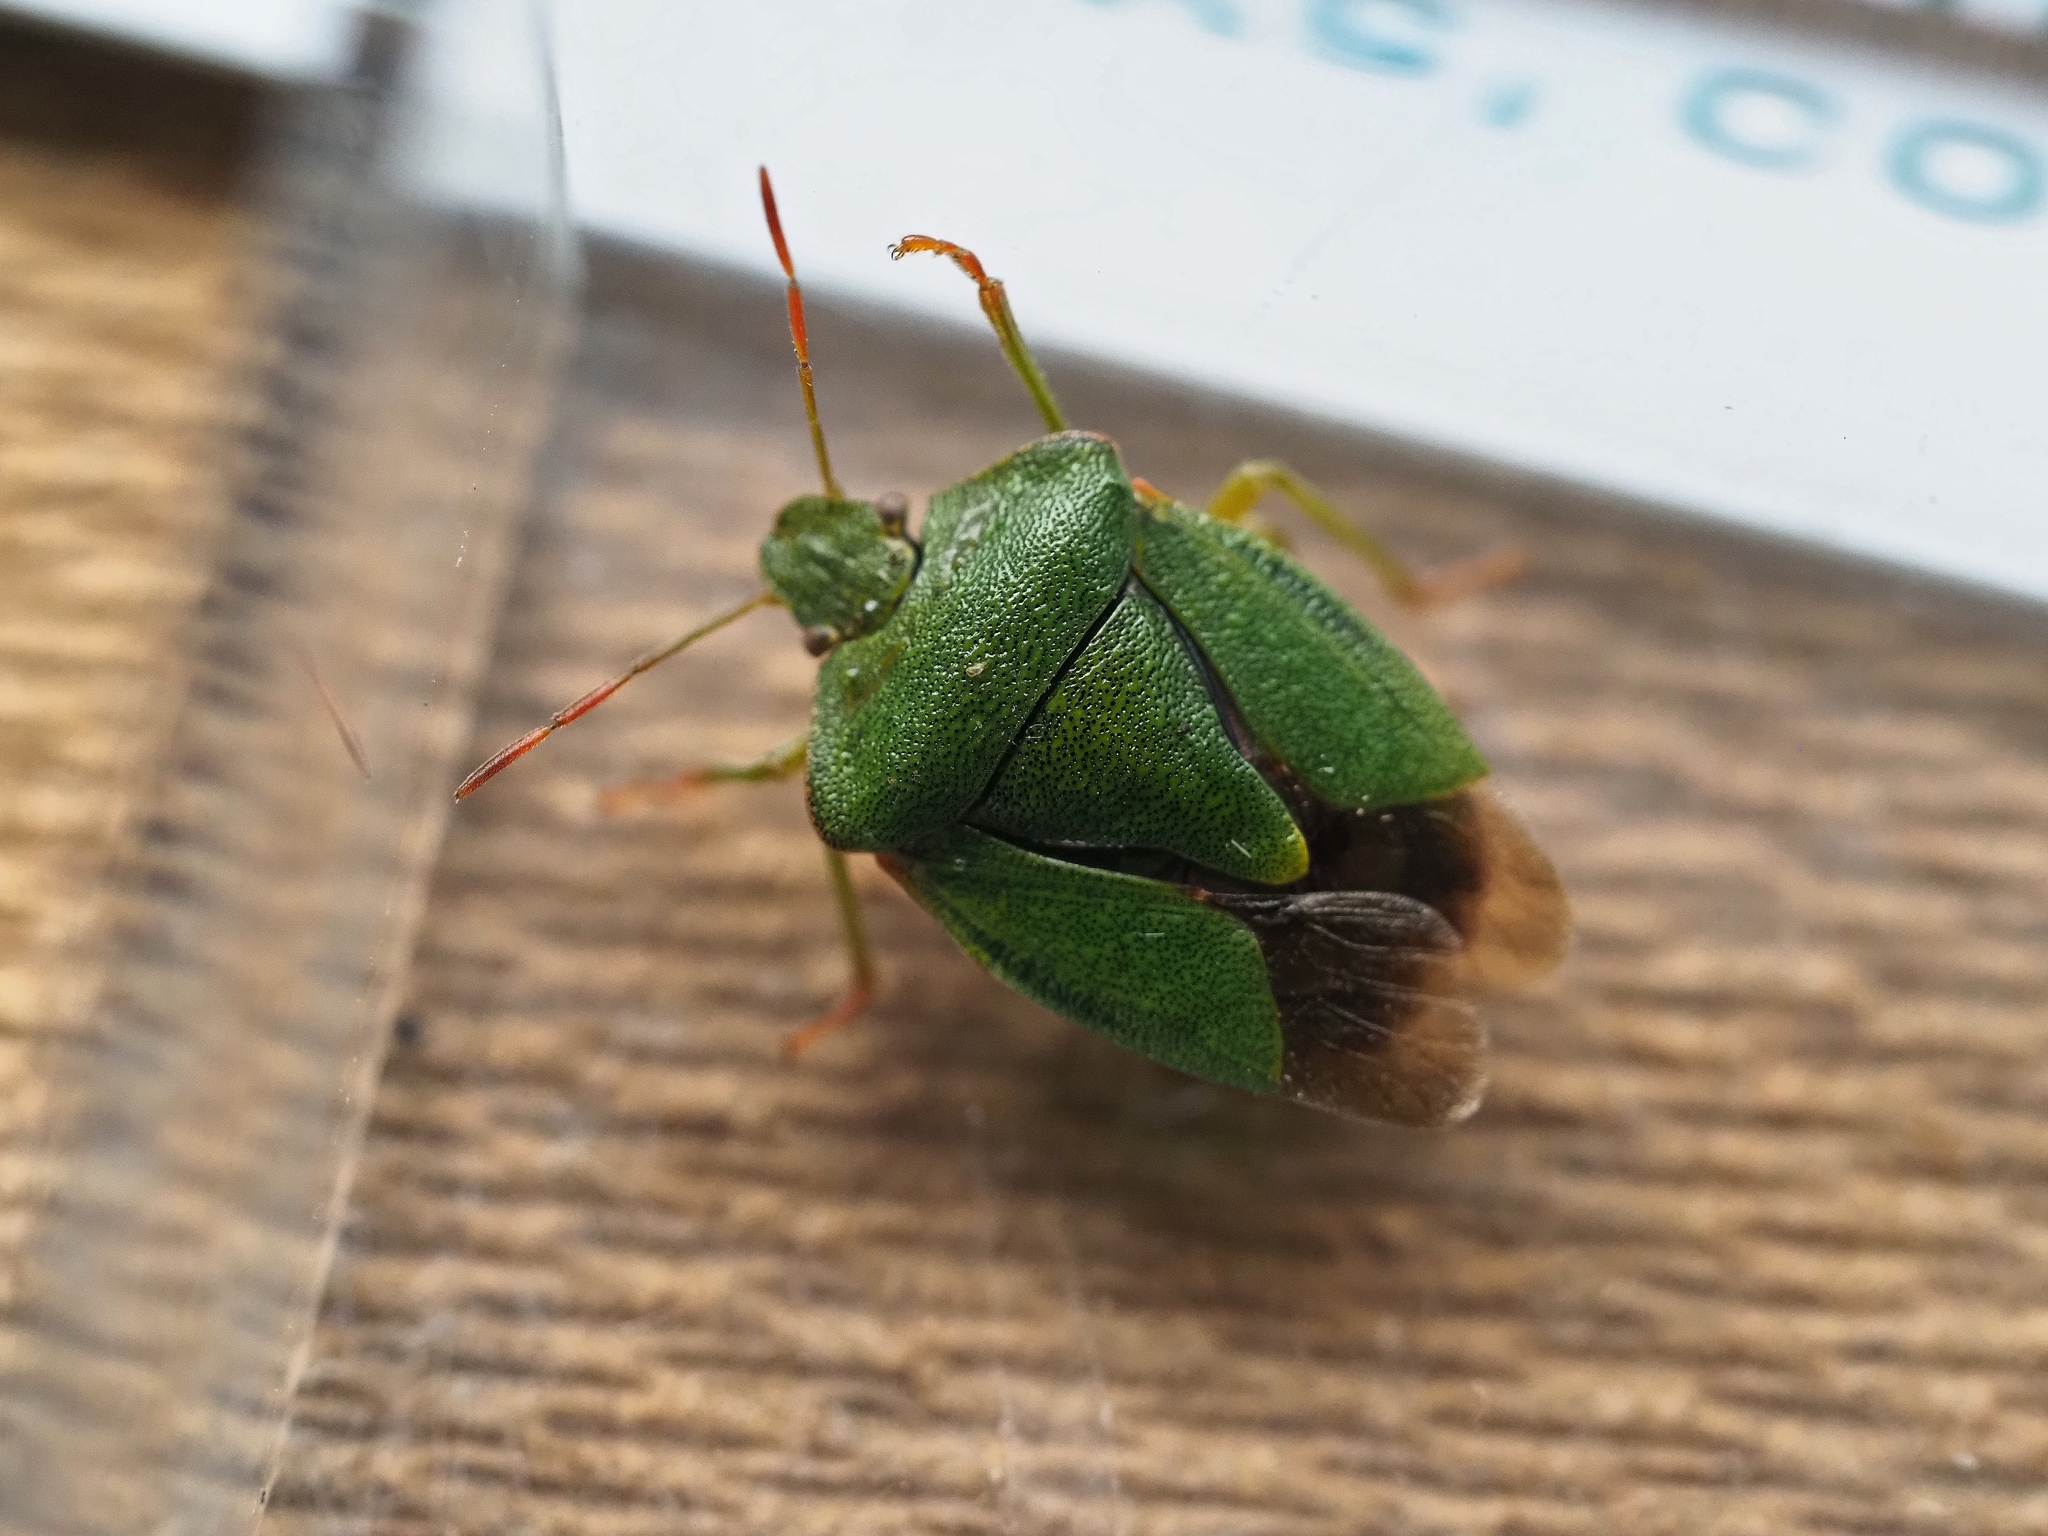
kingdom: Animalia
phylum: Arthropoda
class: Insecta
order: Hemiptera
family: Pentatomidae
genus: Palomena
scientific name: Palomena prasina
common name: Green shieldbug
